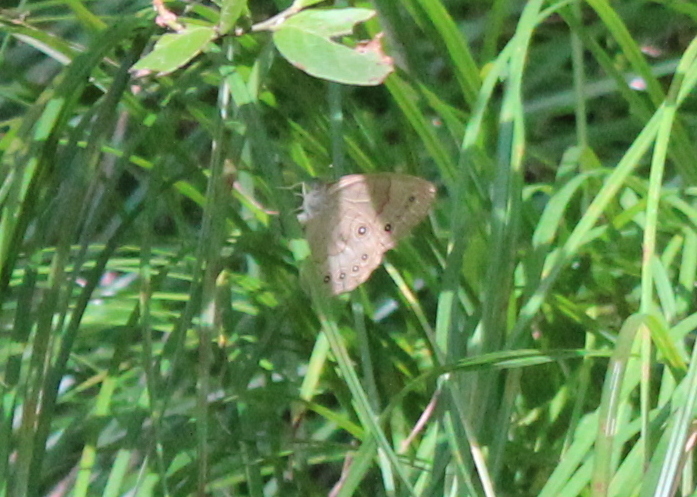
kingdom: Animalia
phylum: Arthropoda
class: Insecta
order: Lepidoptera
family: Nymphalidae
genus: Lethe
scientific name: Lethe eurydice
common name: Eyed brown
